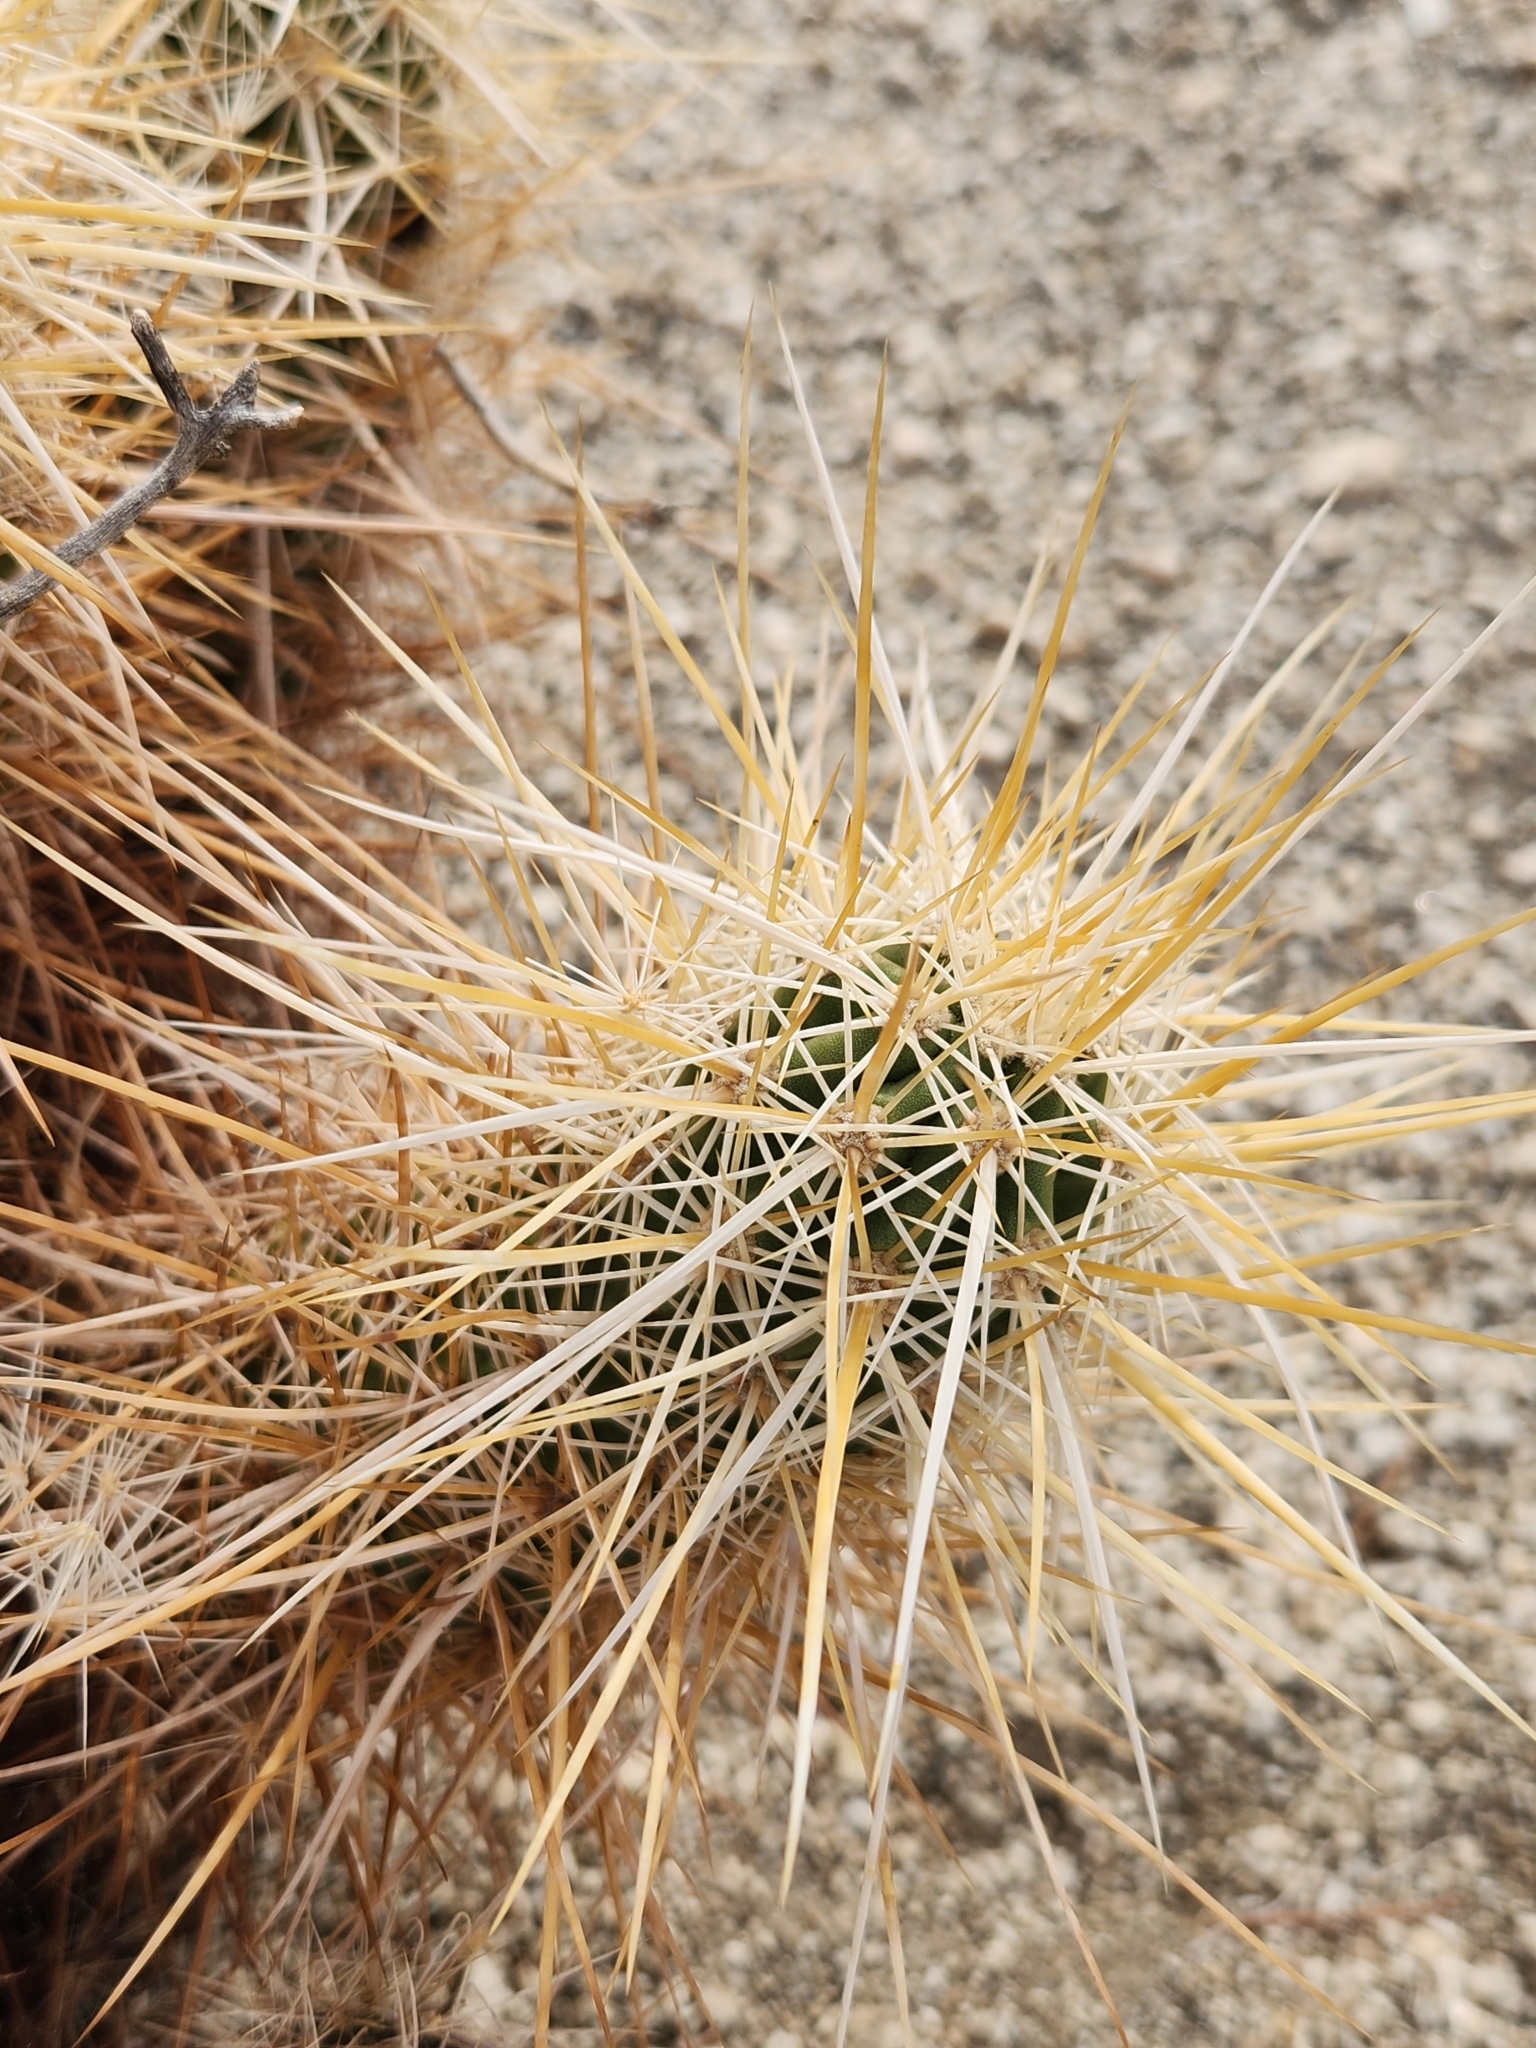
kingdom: Plantae
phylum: Tracheophyta
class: Magnoliopsida
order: Caryophyllales
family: Cactaceae
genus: Echinocereus
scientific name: Echinocereus engelmannii
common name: Engelmann's hedgehog cactus
